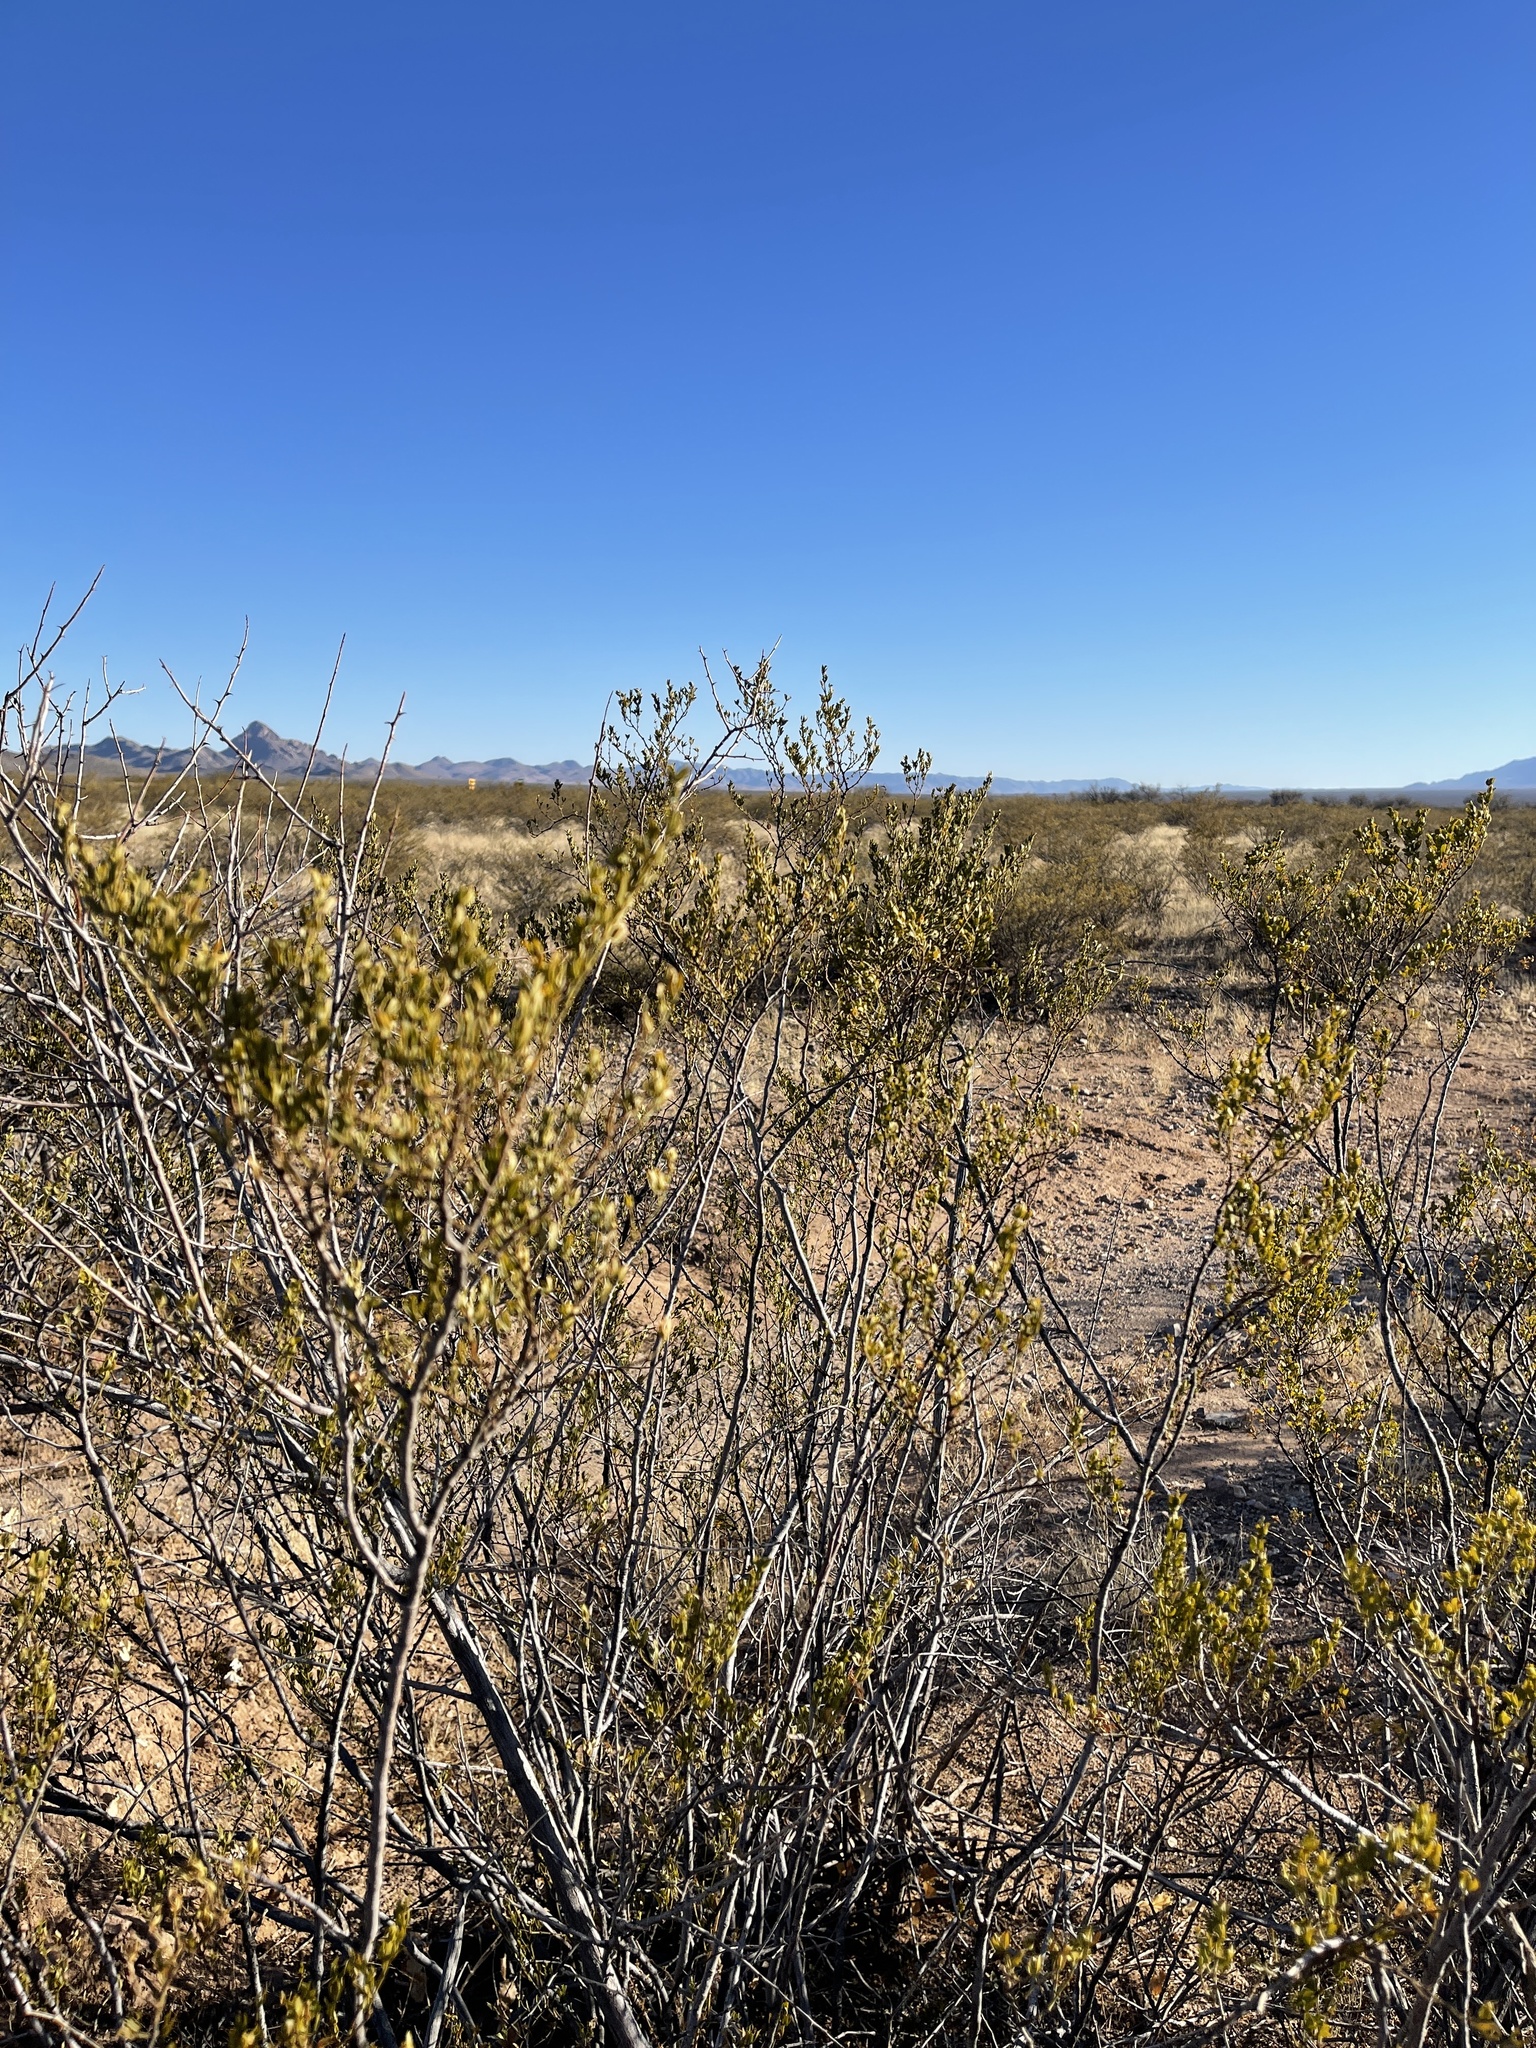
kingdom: Plantae
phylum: Tracheophyta
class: Magnoliopsida
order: Zygophyllales
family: Zygophyllaceae
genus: Larrea
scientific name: Larrea tridentata
